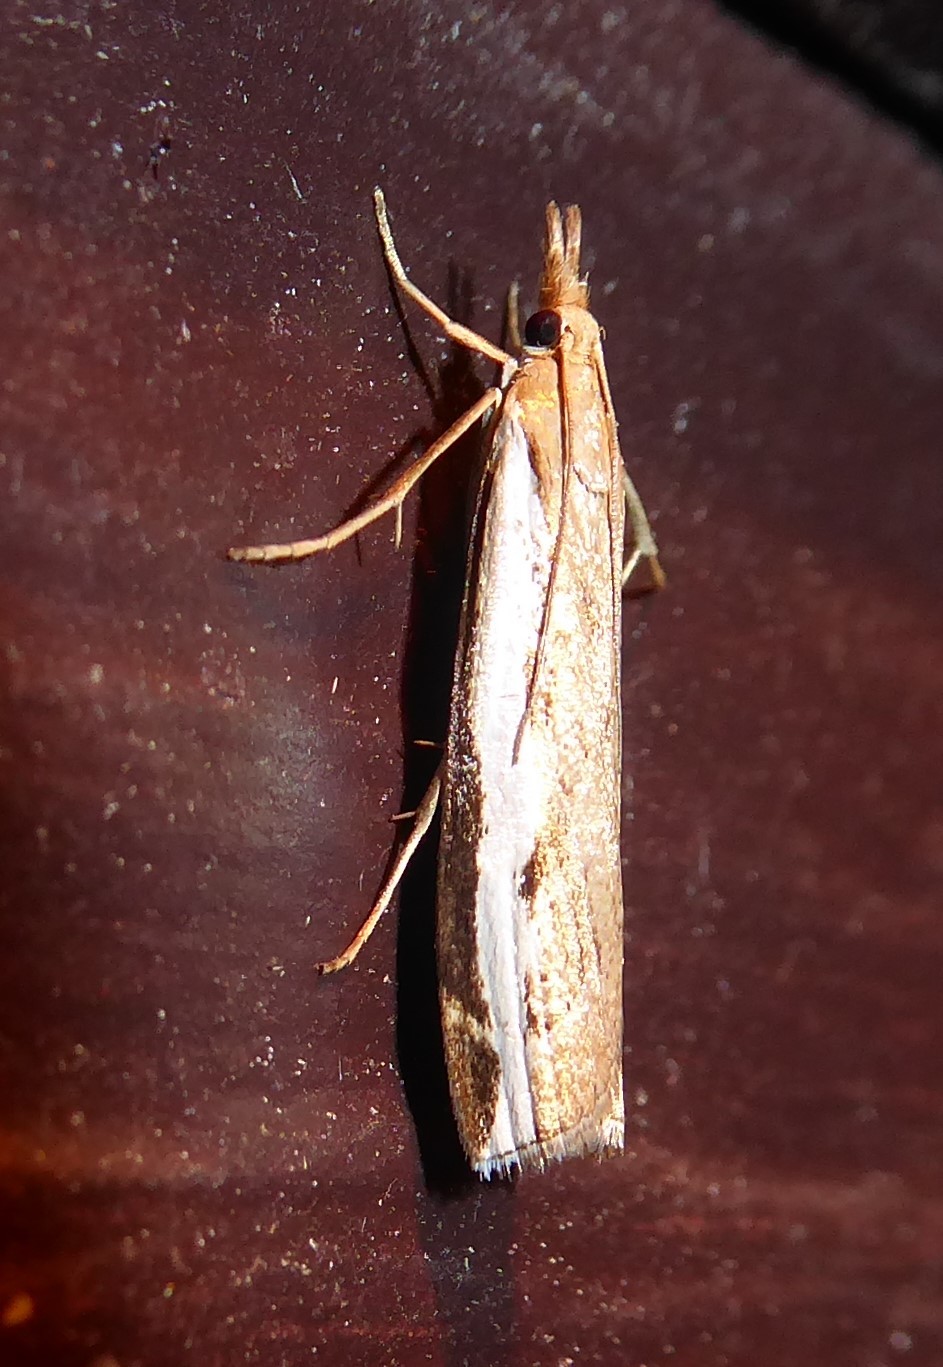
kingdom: Animalia
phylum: Arthropoda
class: Insecta
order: Lepidoptera
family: Crambidae
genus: Orocrambus
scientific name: Orocrambus flexuosellus
